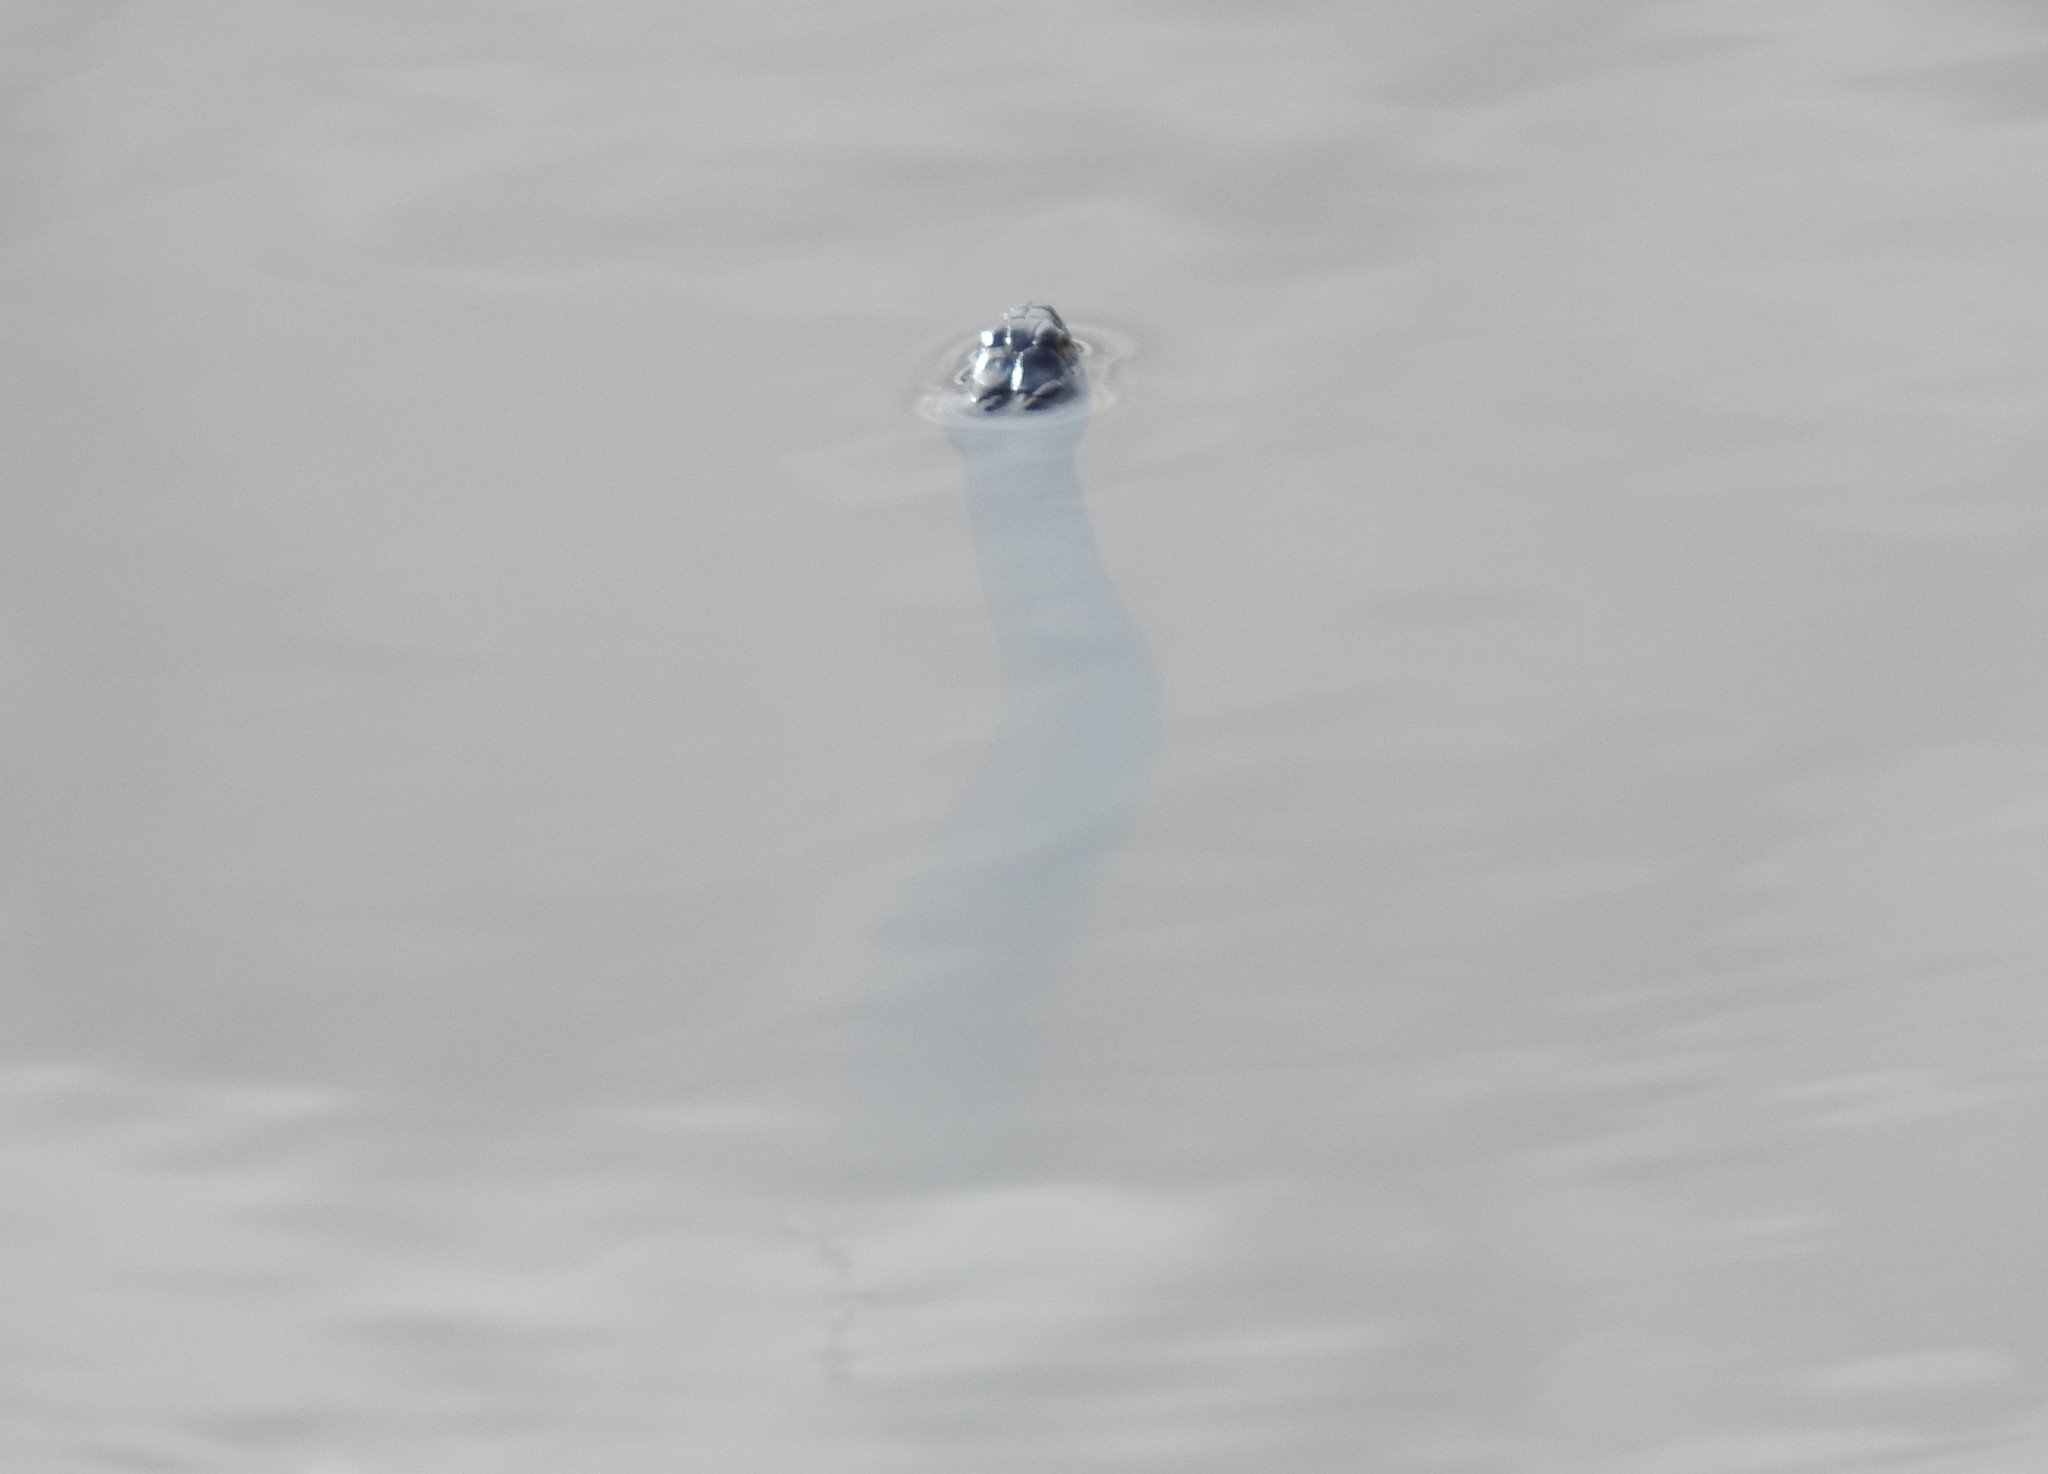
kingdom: Animalia
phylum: Chordata
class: Squamata
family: Colubridae
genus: Nerodia
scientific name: Nerodia sipedon
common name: Northern water snake
